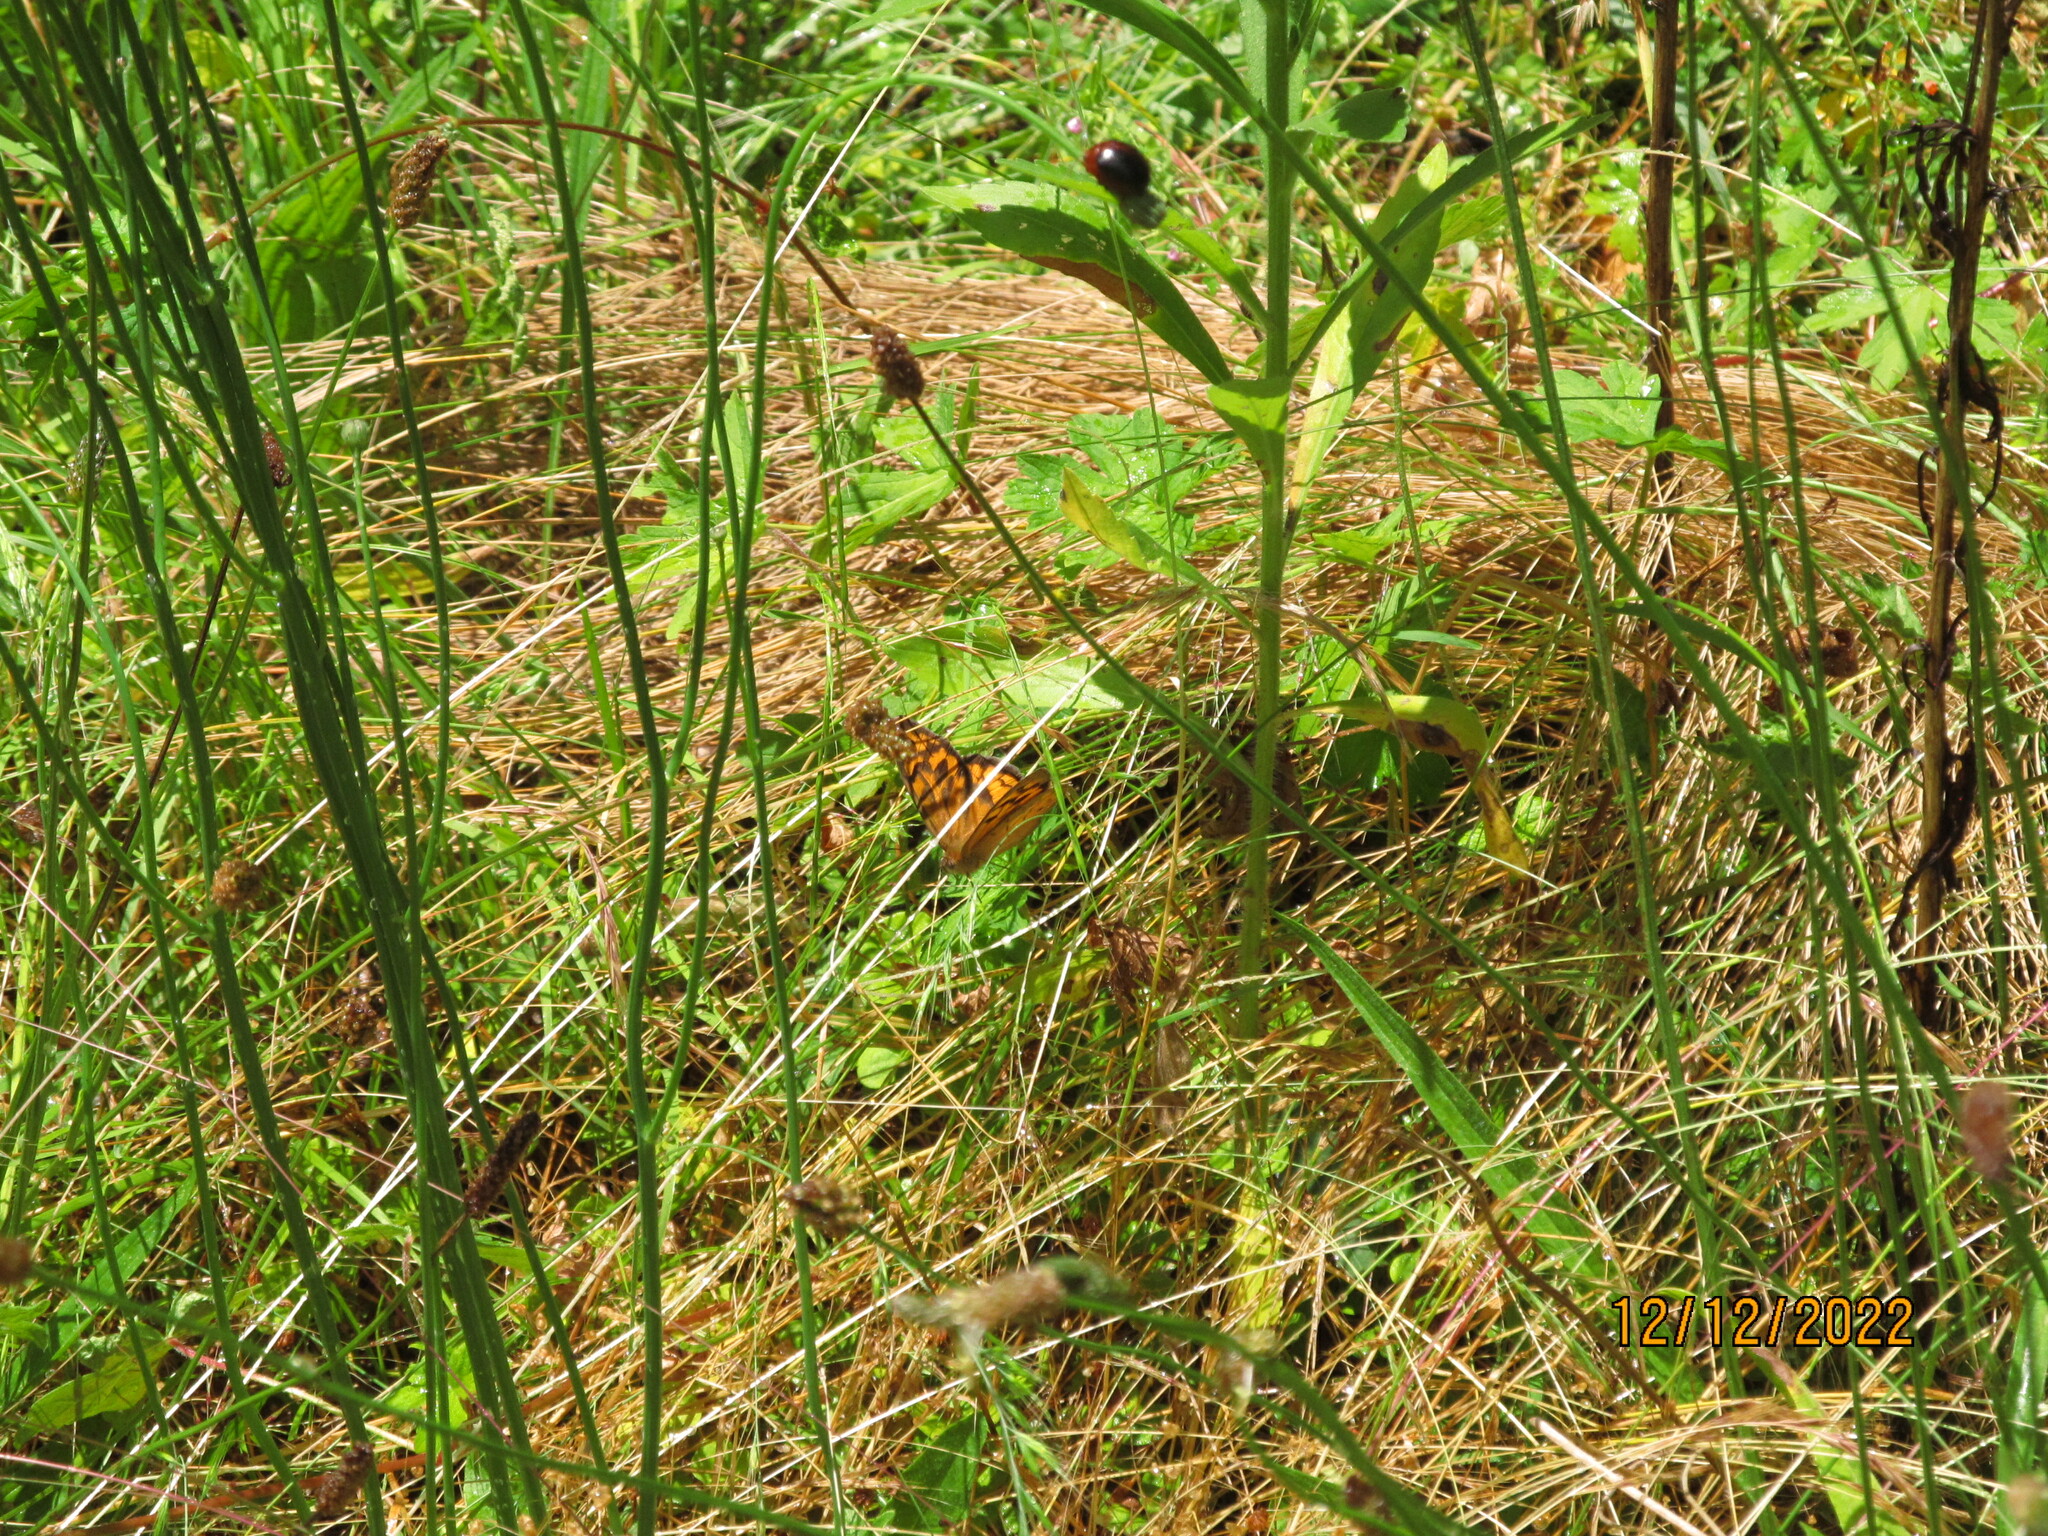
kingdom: Animalia
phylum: Arthropoda
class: Insecta
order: Lepidoptera
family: Nymphalidae
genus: Heteronympha
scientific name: Heteronympha merope
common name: Common brown
